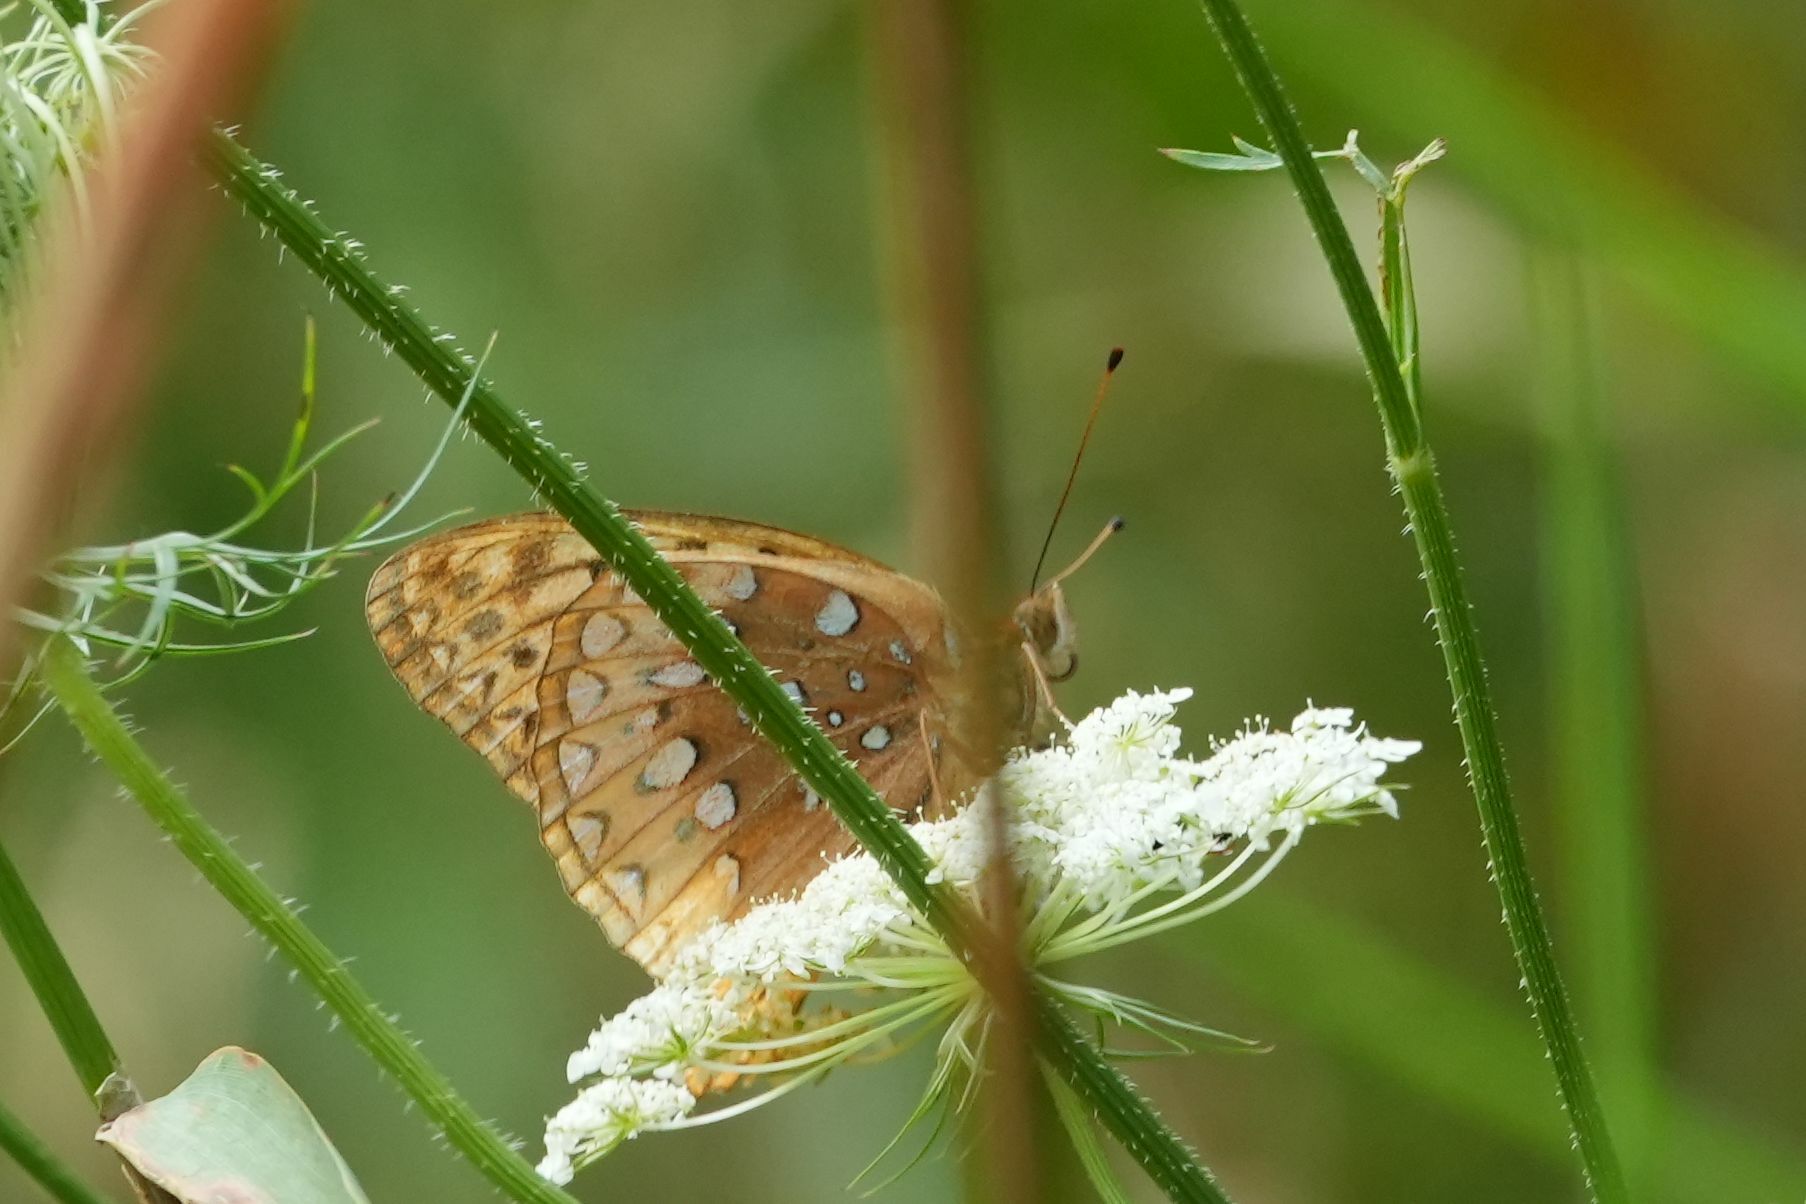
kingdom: Animalia
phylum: Arthropoda
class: Insecta
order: Lepidoptera
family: Nymphalidae
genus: Speyeria
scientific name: Speyeria cybele
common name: Great spangled fritillary
